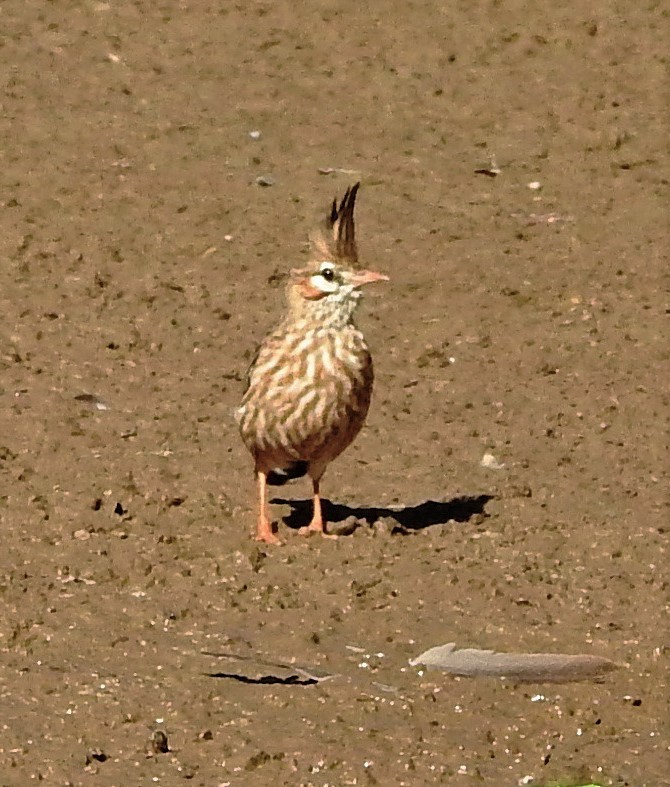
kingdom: Animalia
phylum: Chordata
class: Aves
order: Passeriformes
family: Furnariidae
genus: Coryphistera
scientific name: Coryphistera alaudina
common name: Lark-like brushrunner
